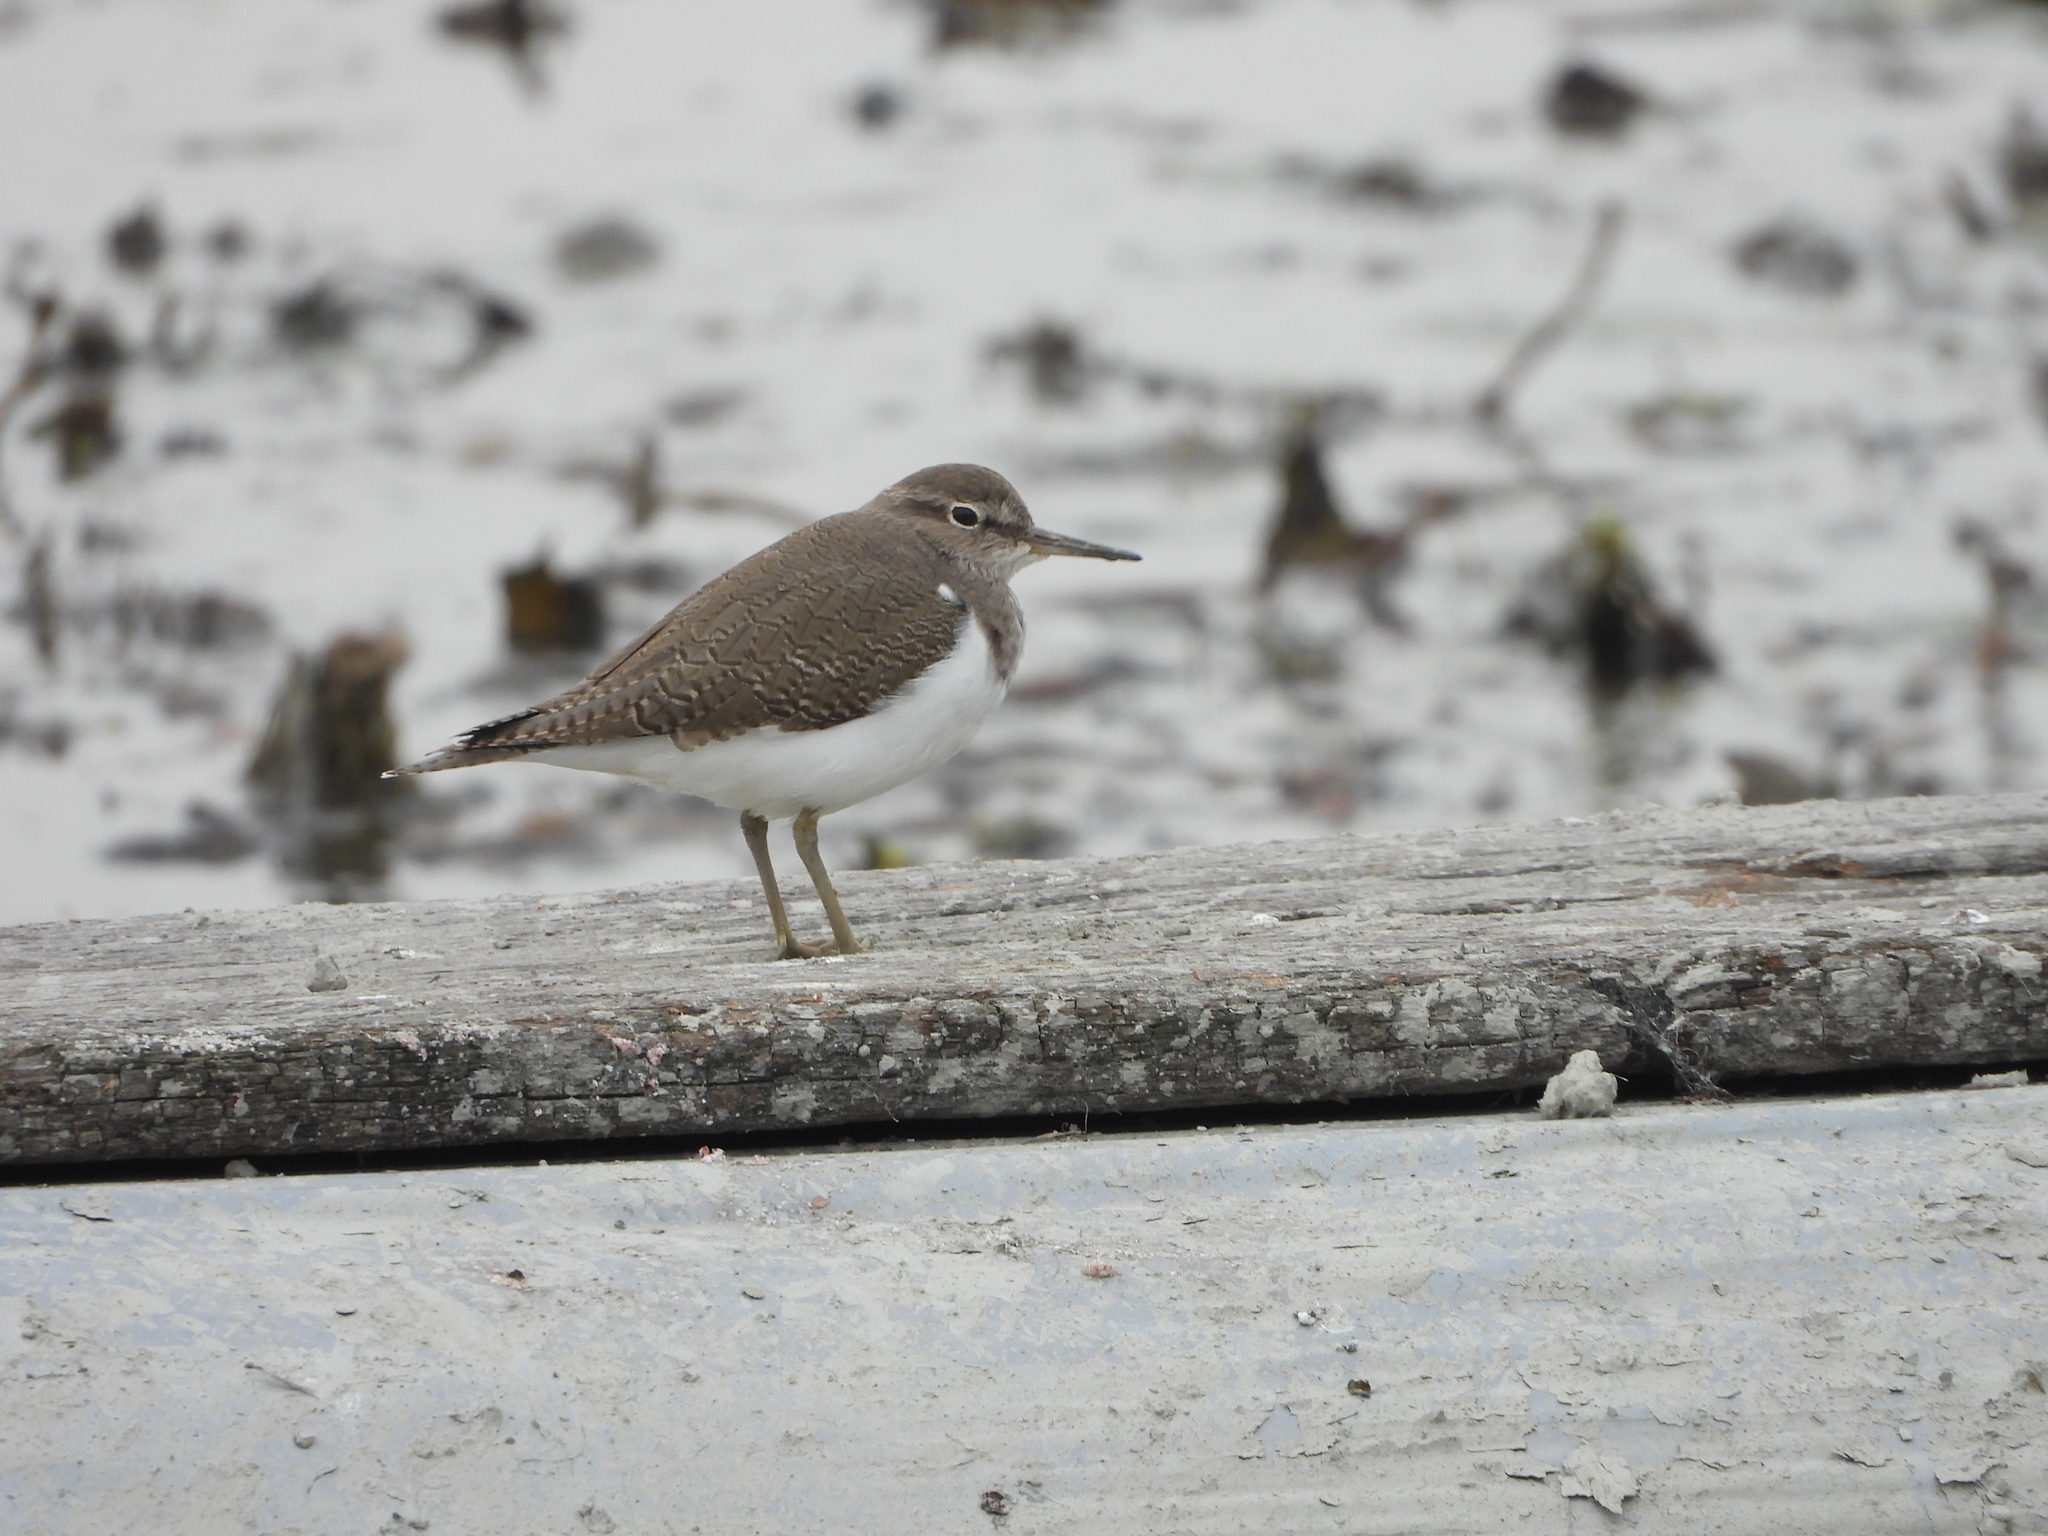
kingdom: Animalia
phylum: Chordata
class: Aves
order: Charadriiformes
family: Scolopacidae
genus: Actitis
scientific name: Actitis hypoleucos
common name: Common sandpiper
